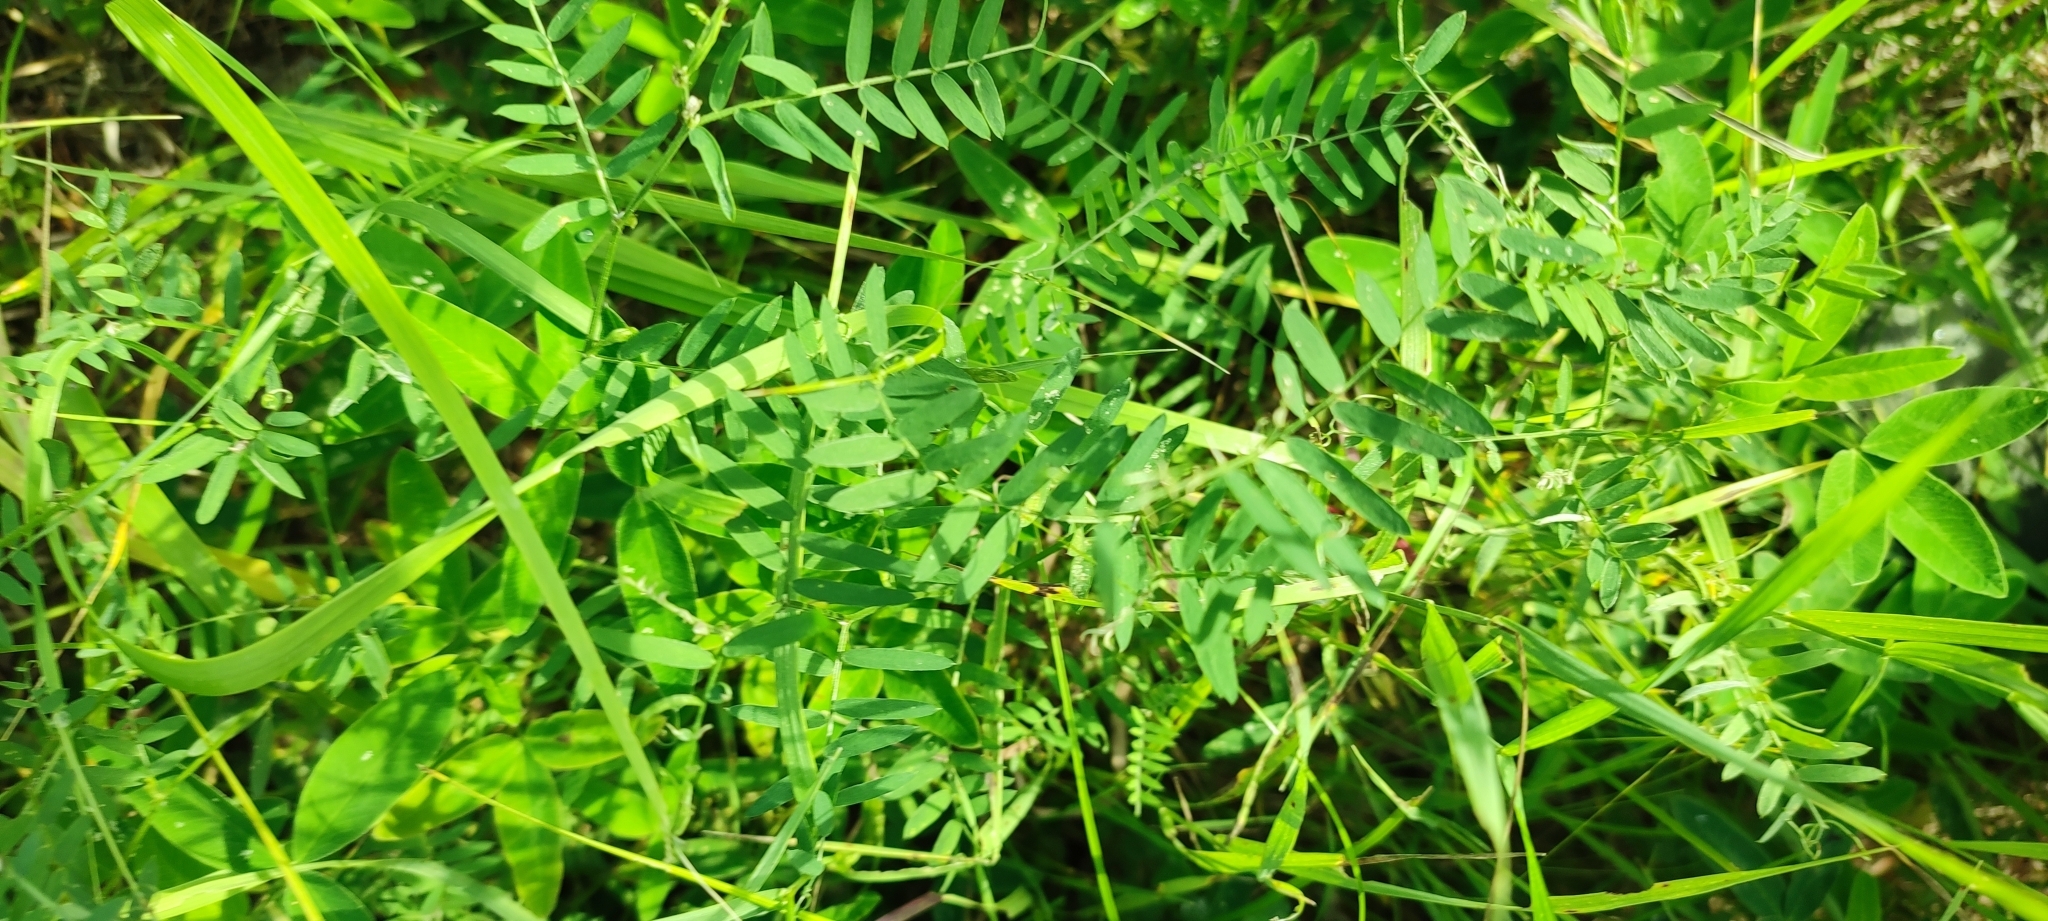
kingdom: Plantae
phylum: Tracheophyta
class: Magnoliopsida
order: Fabales
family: Fabaceae
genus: Vicia
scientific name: Vicia cracca
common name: Bird vetch
